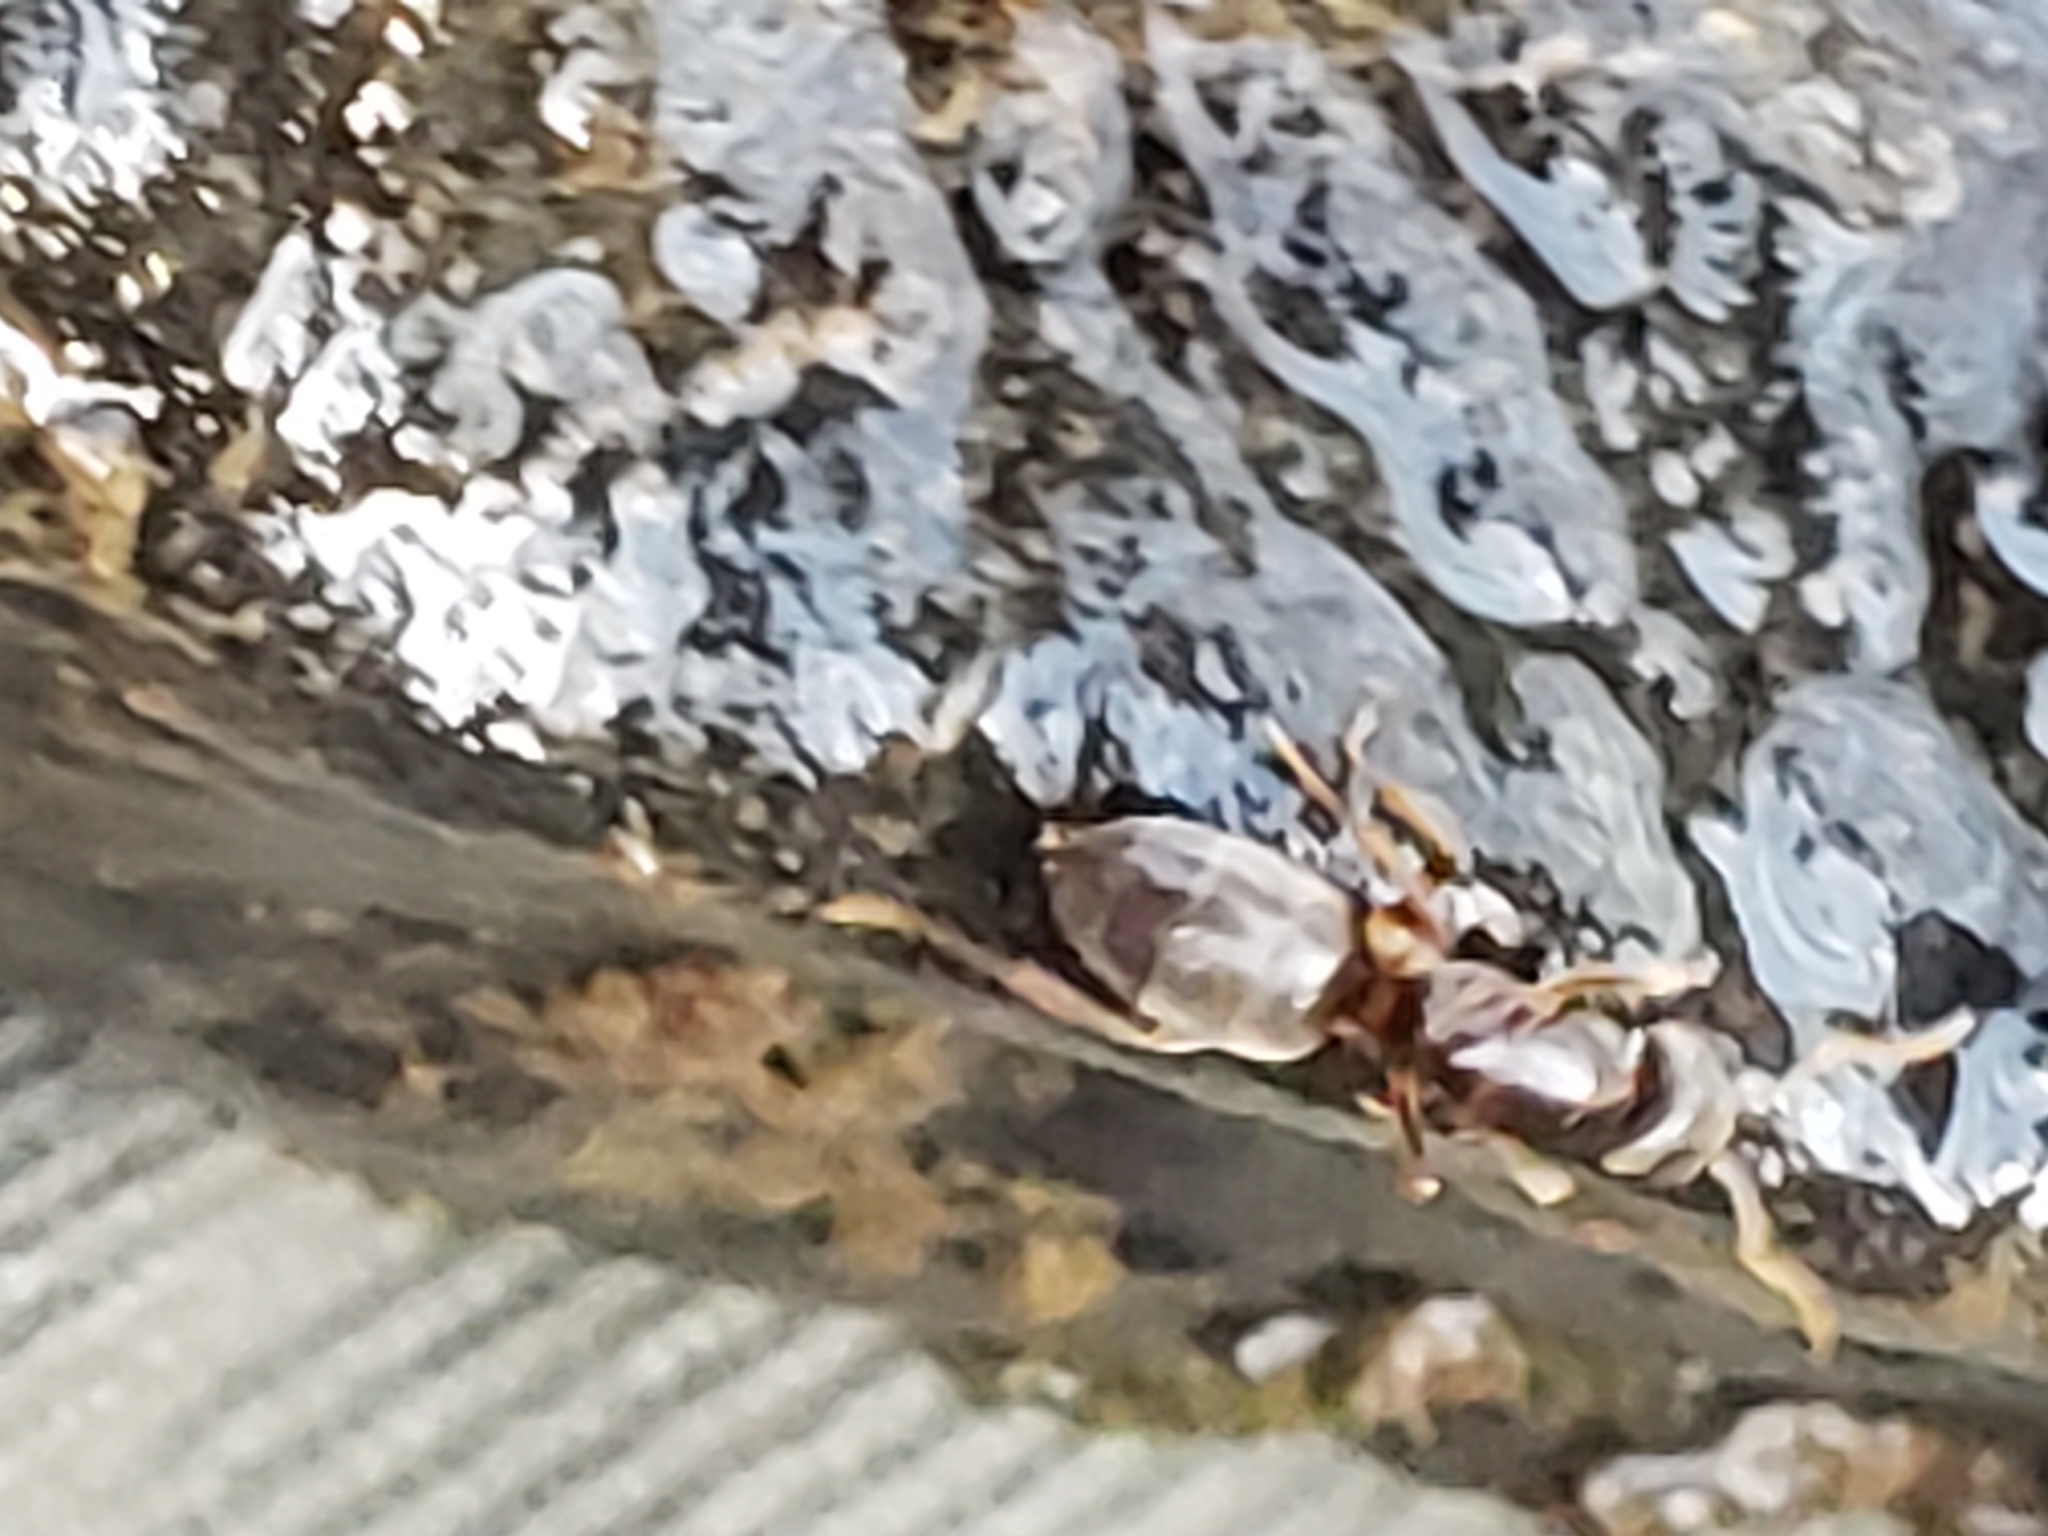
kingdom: Animalia
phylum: Arthropoda
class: Insecta
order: Hymenoptera
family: Formicidae
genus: Lasius
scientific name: Lasius aphidicola
